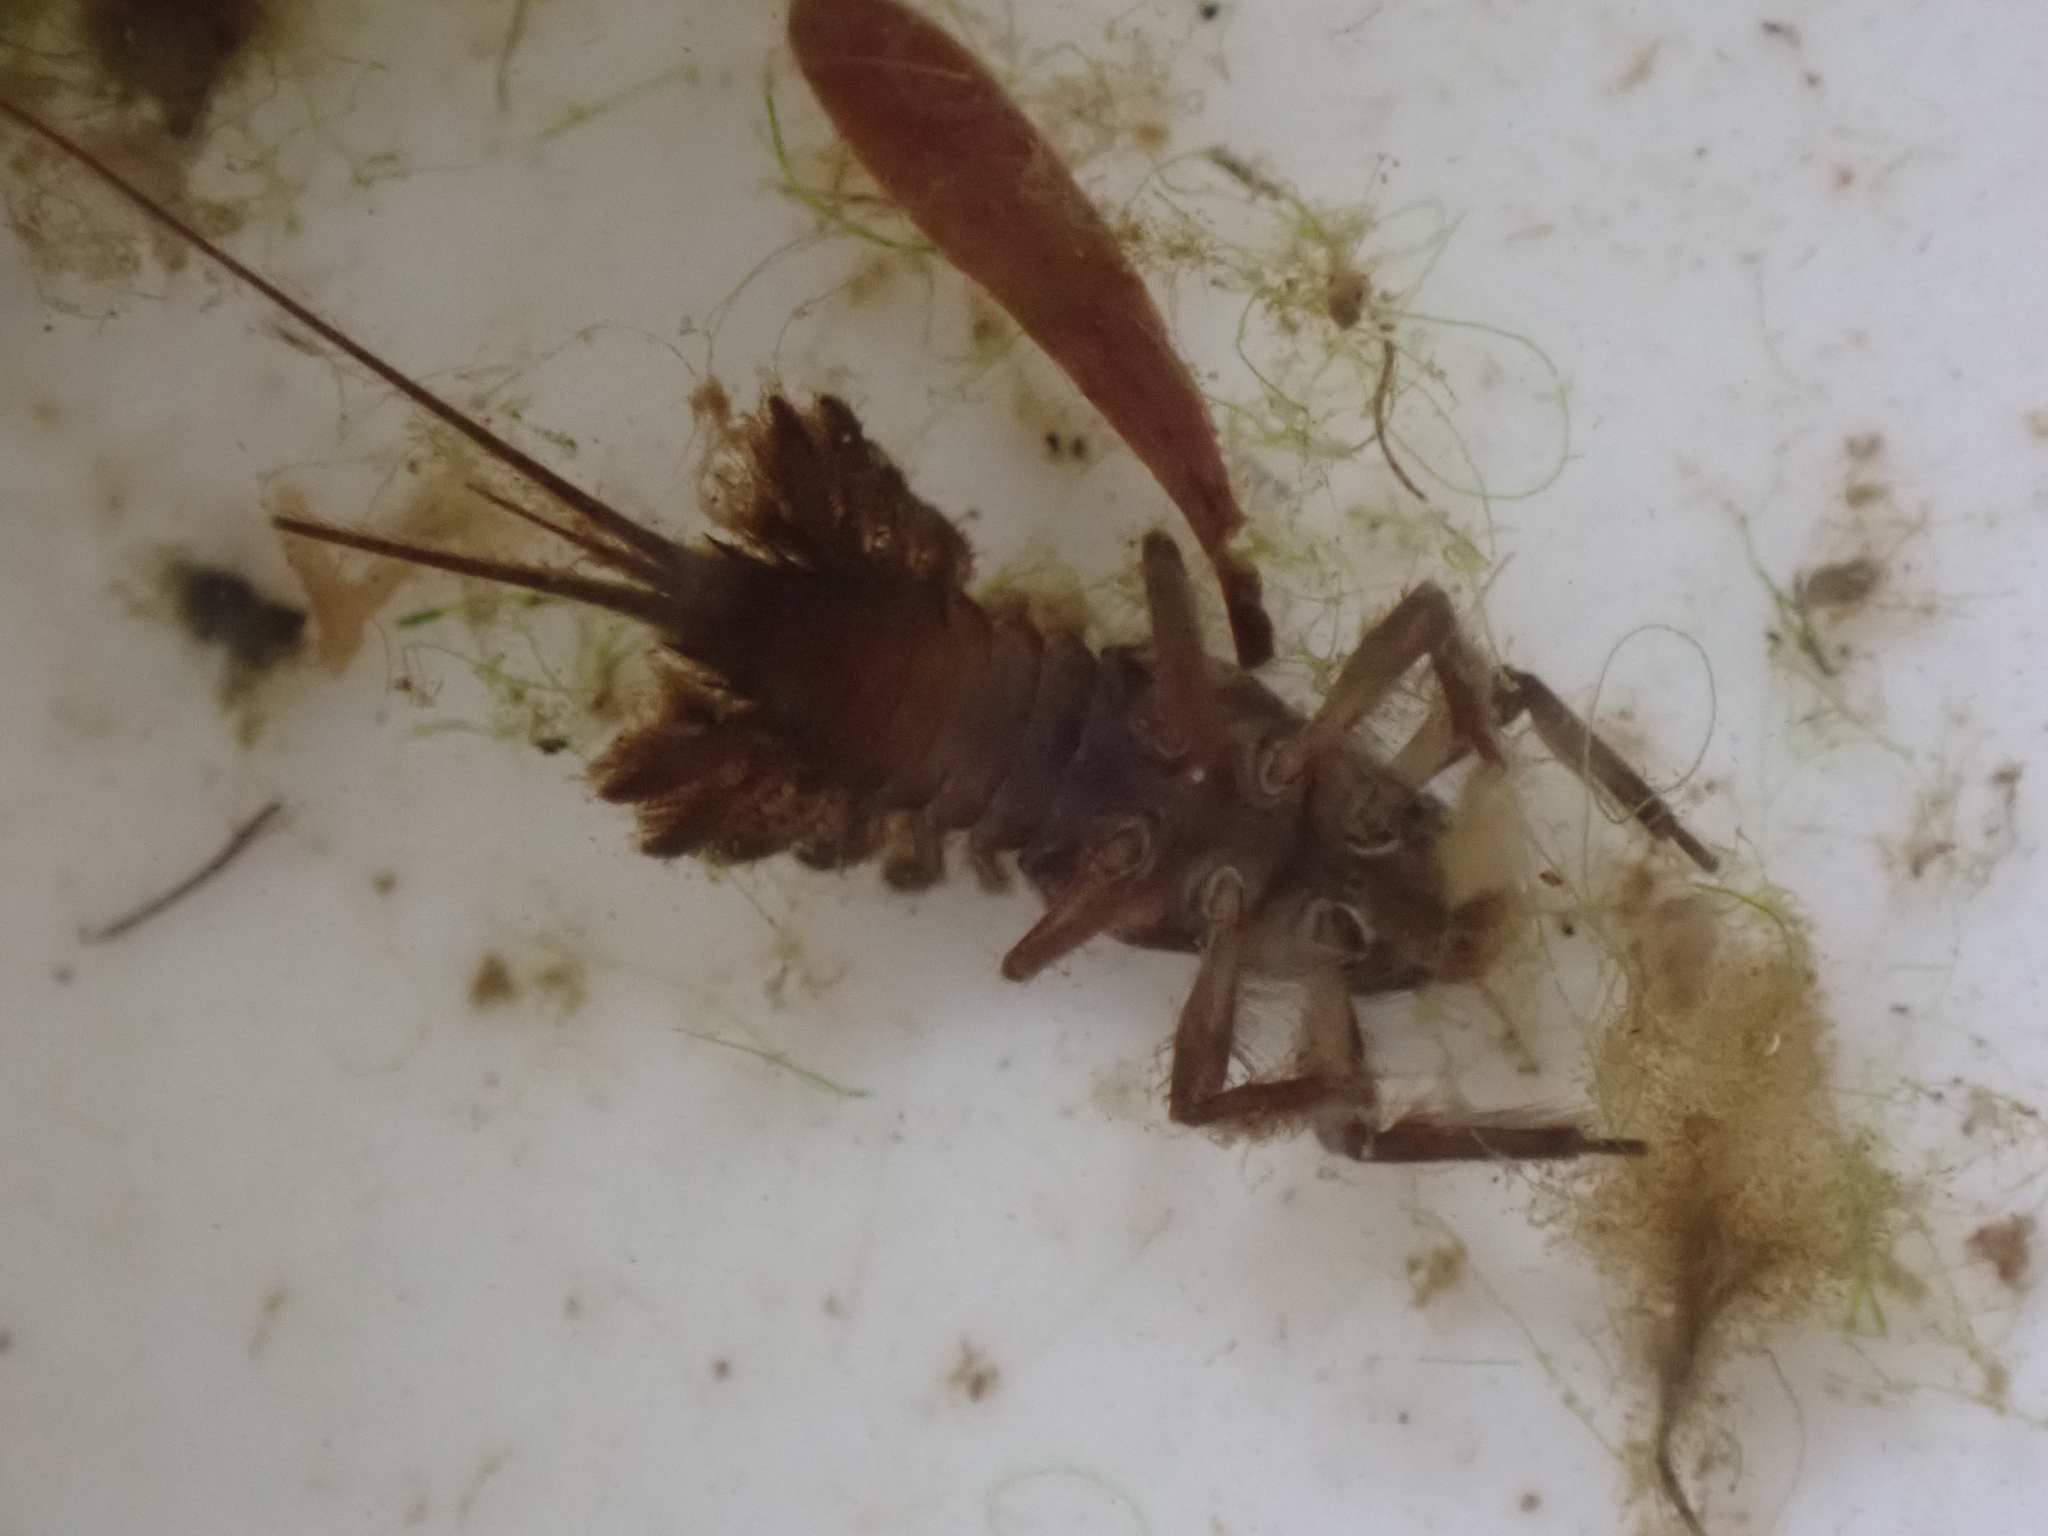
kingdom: Animalia
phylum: Arthropoda
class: Insecta
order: Ephemeroptera
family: Coloburiscidae
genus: Coloburiscus
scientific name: Coloburiscus humeralis
